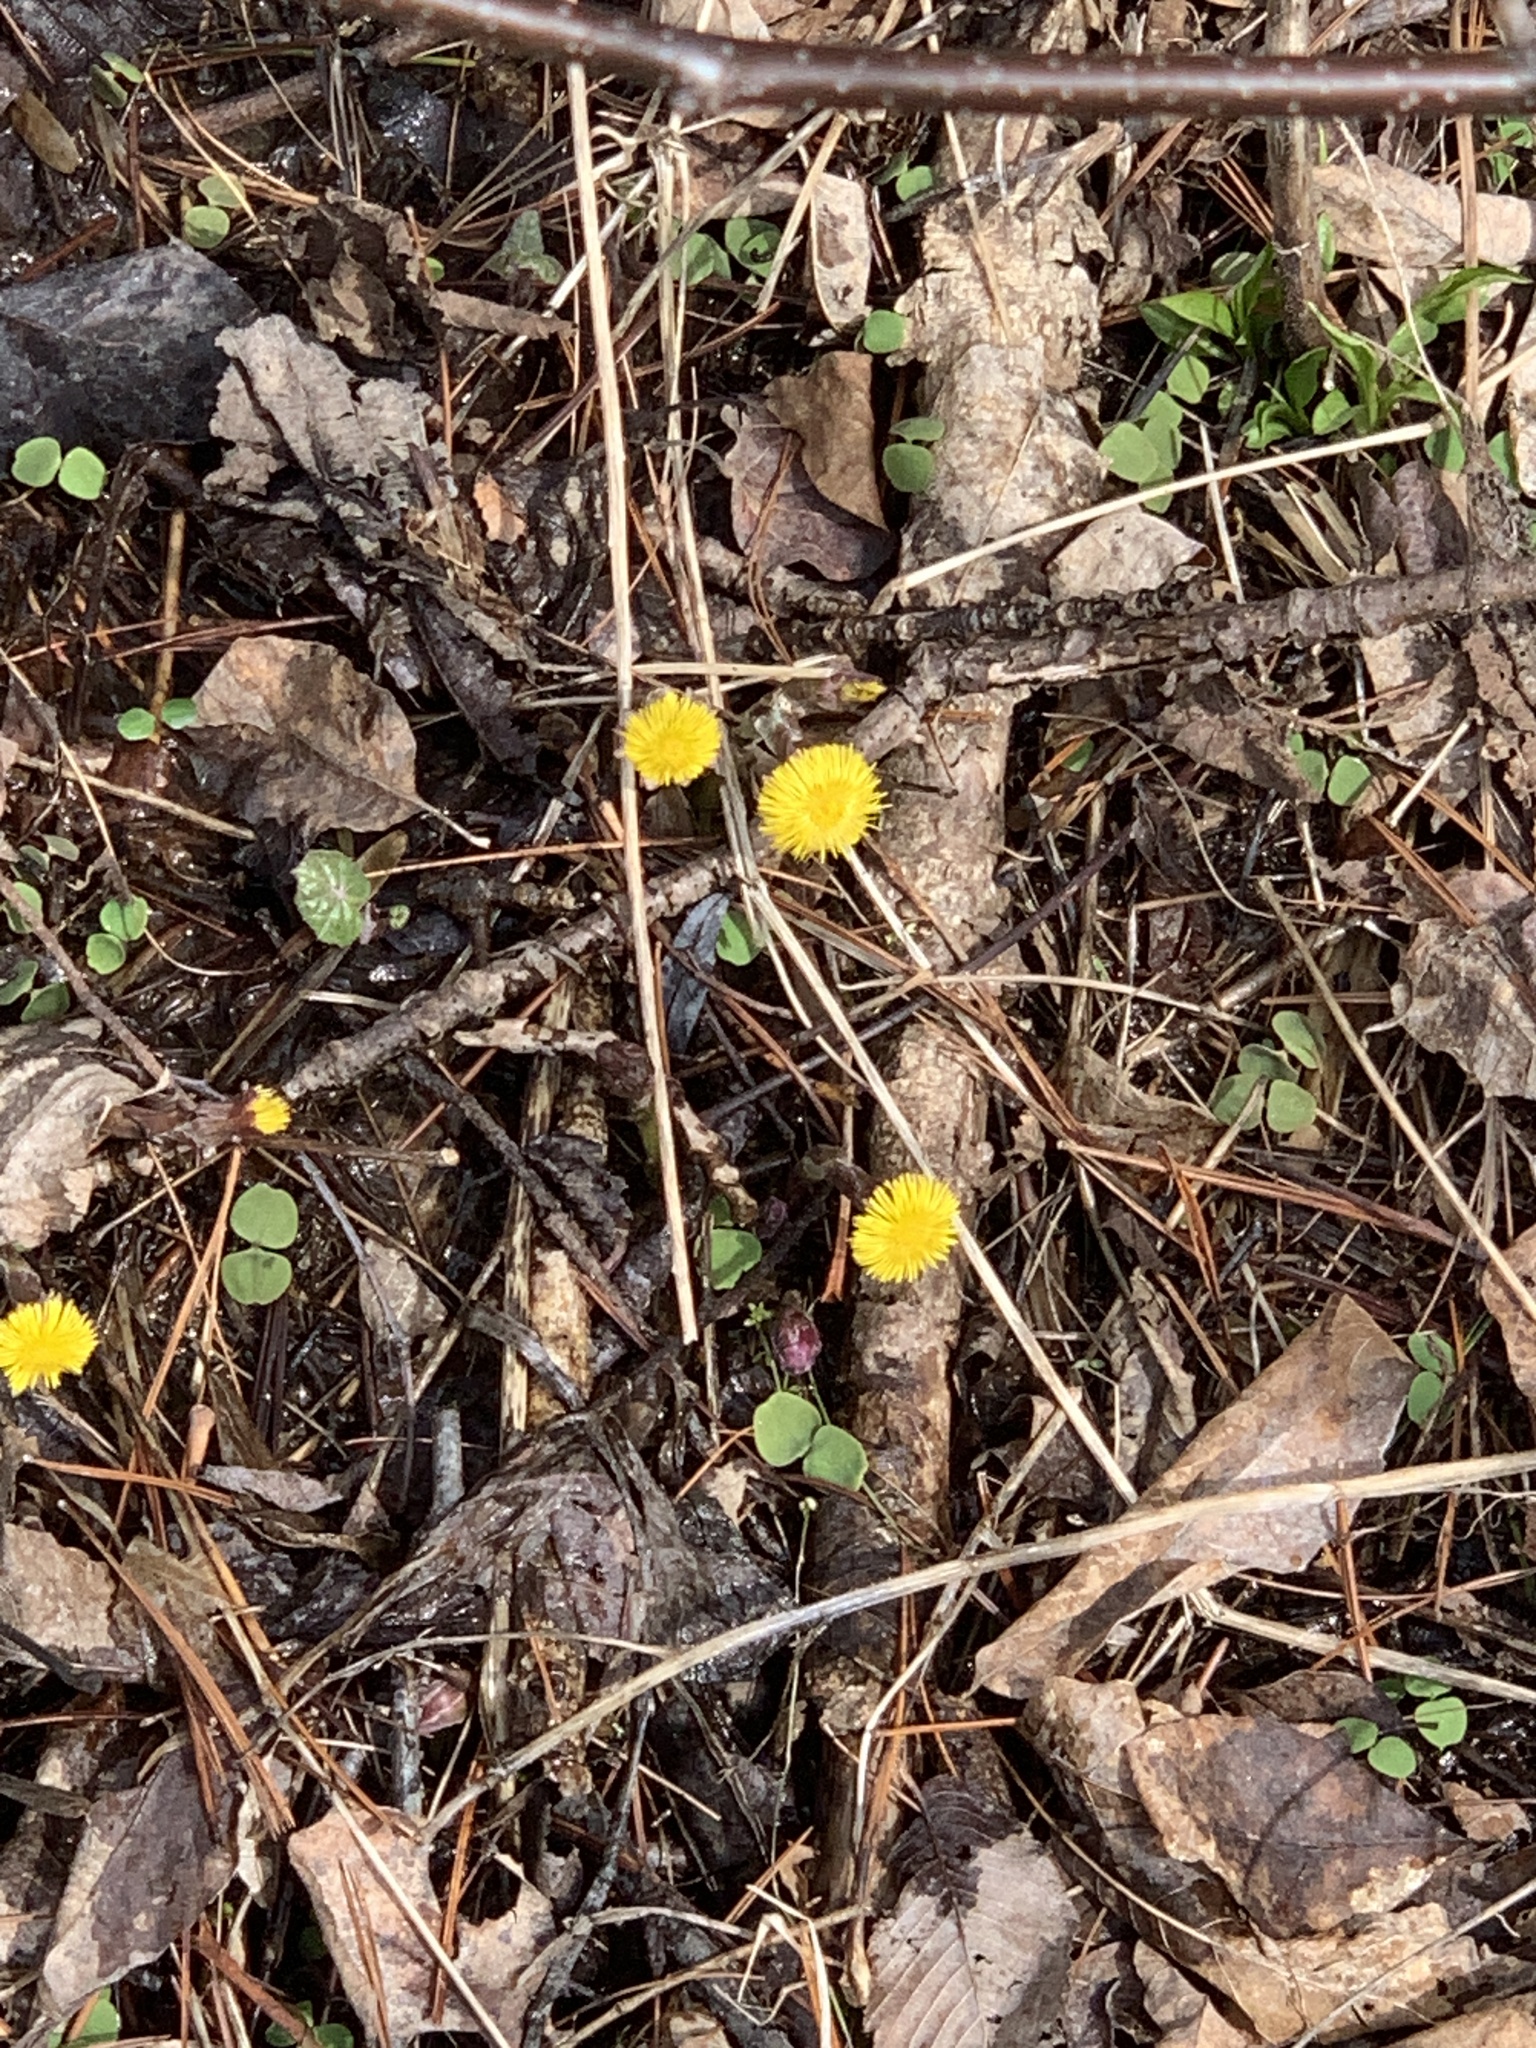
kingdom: Plantae
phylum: Tracheophyta
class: Magnoliopsida
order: Asterales
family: Asteraceae
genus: Tussilago
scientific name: Tussilago farfara
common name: Coltsfoot
